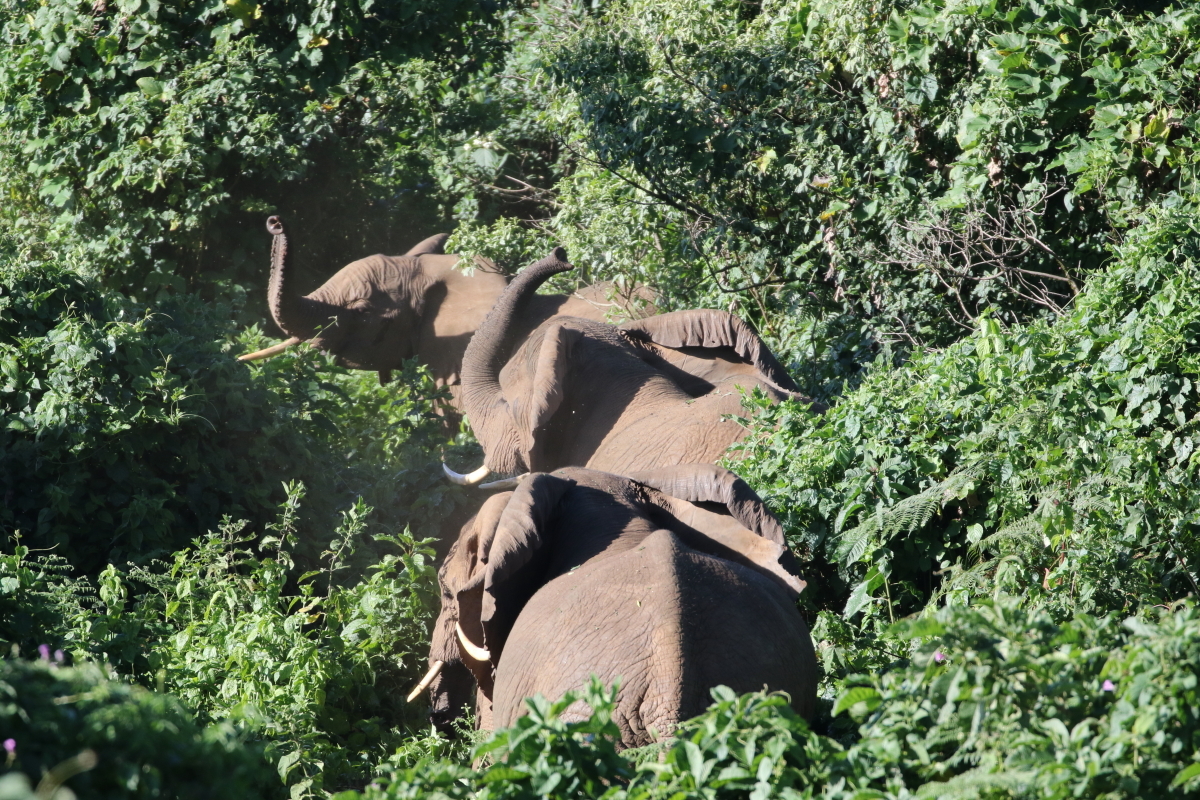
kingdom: Animalia
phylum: Chordata
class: Mammalia
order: Proboscidea
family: Elephantidae
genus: Loxodonta
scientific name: Loxodonta africana
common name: African elephant
